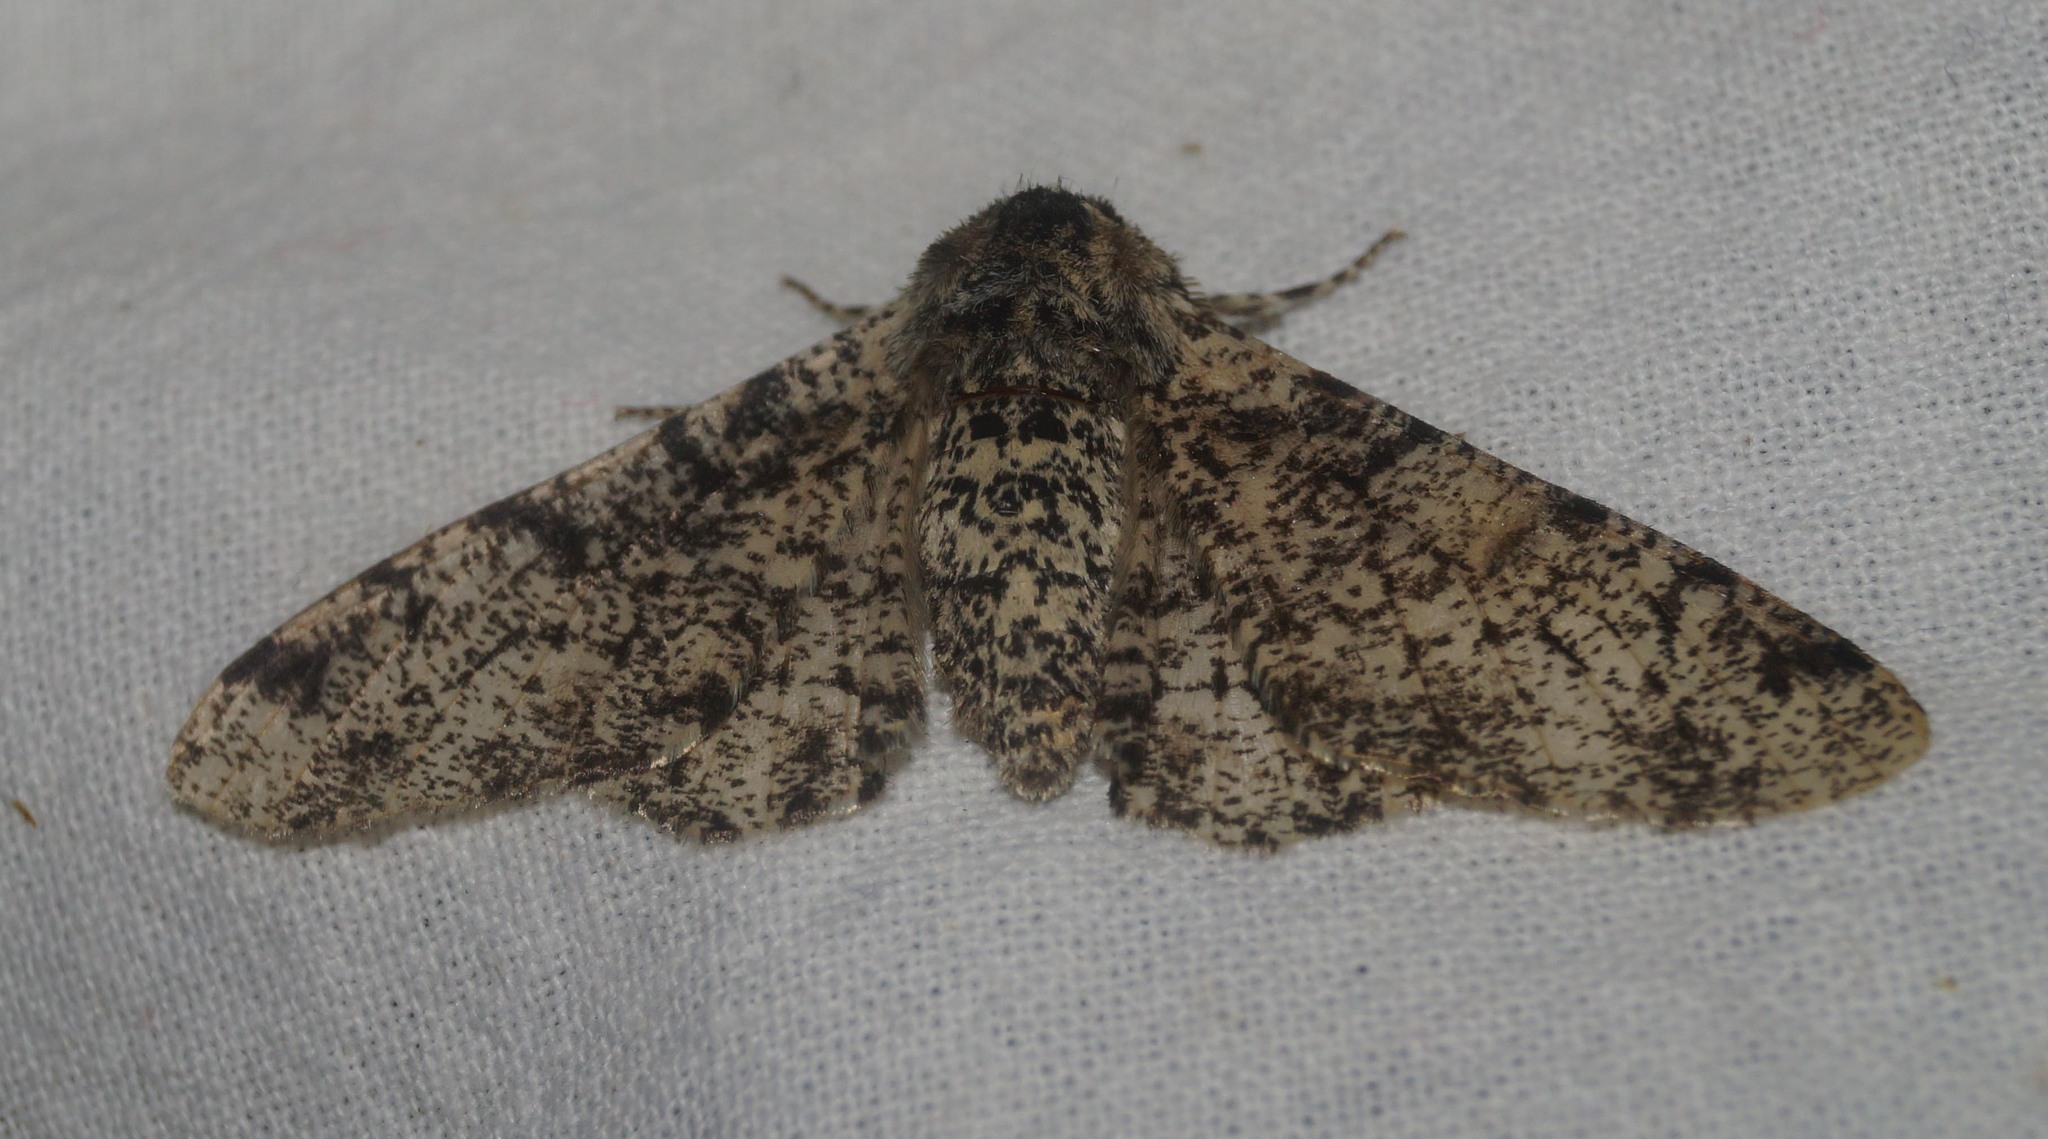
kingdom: Animalia
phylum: Arthropoda
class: Insecta
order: Lepidoptera
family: Geometridae
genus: Biston
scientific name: Biston betularia
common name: Peppered moth
